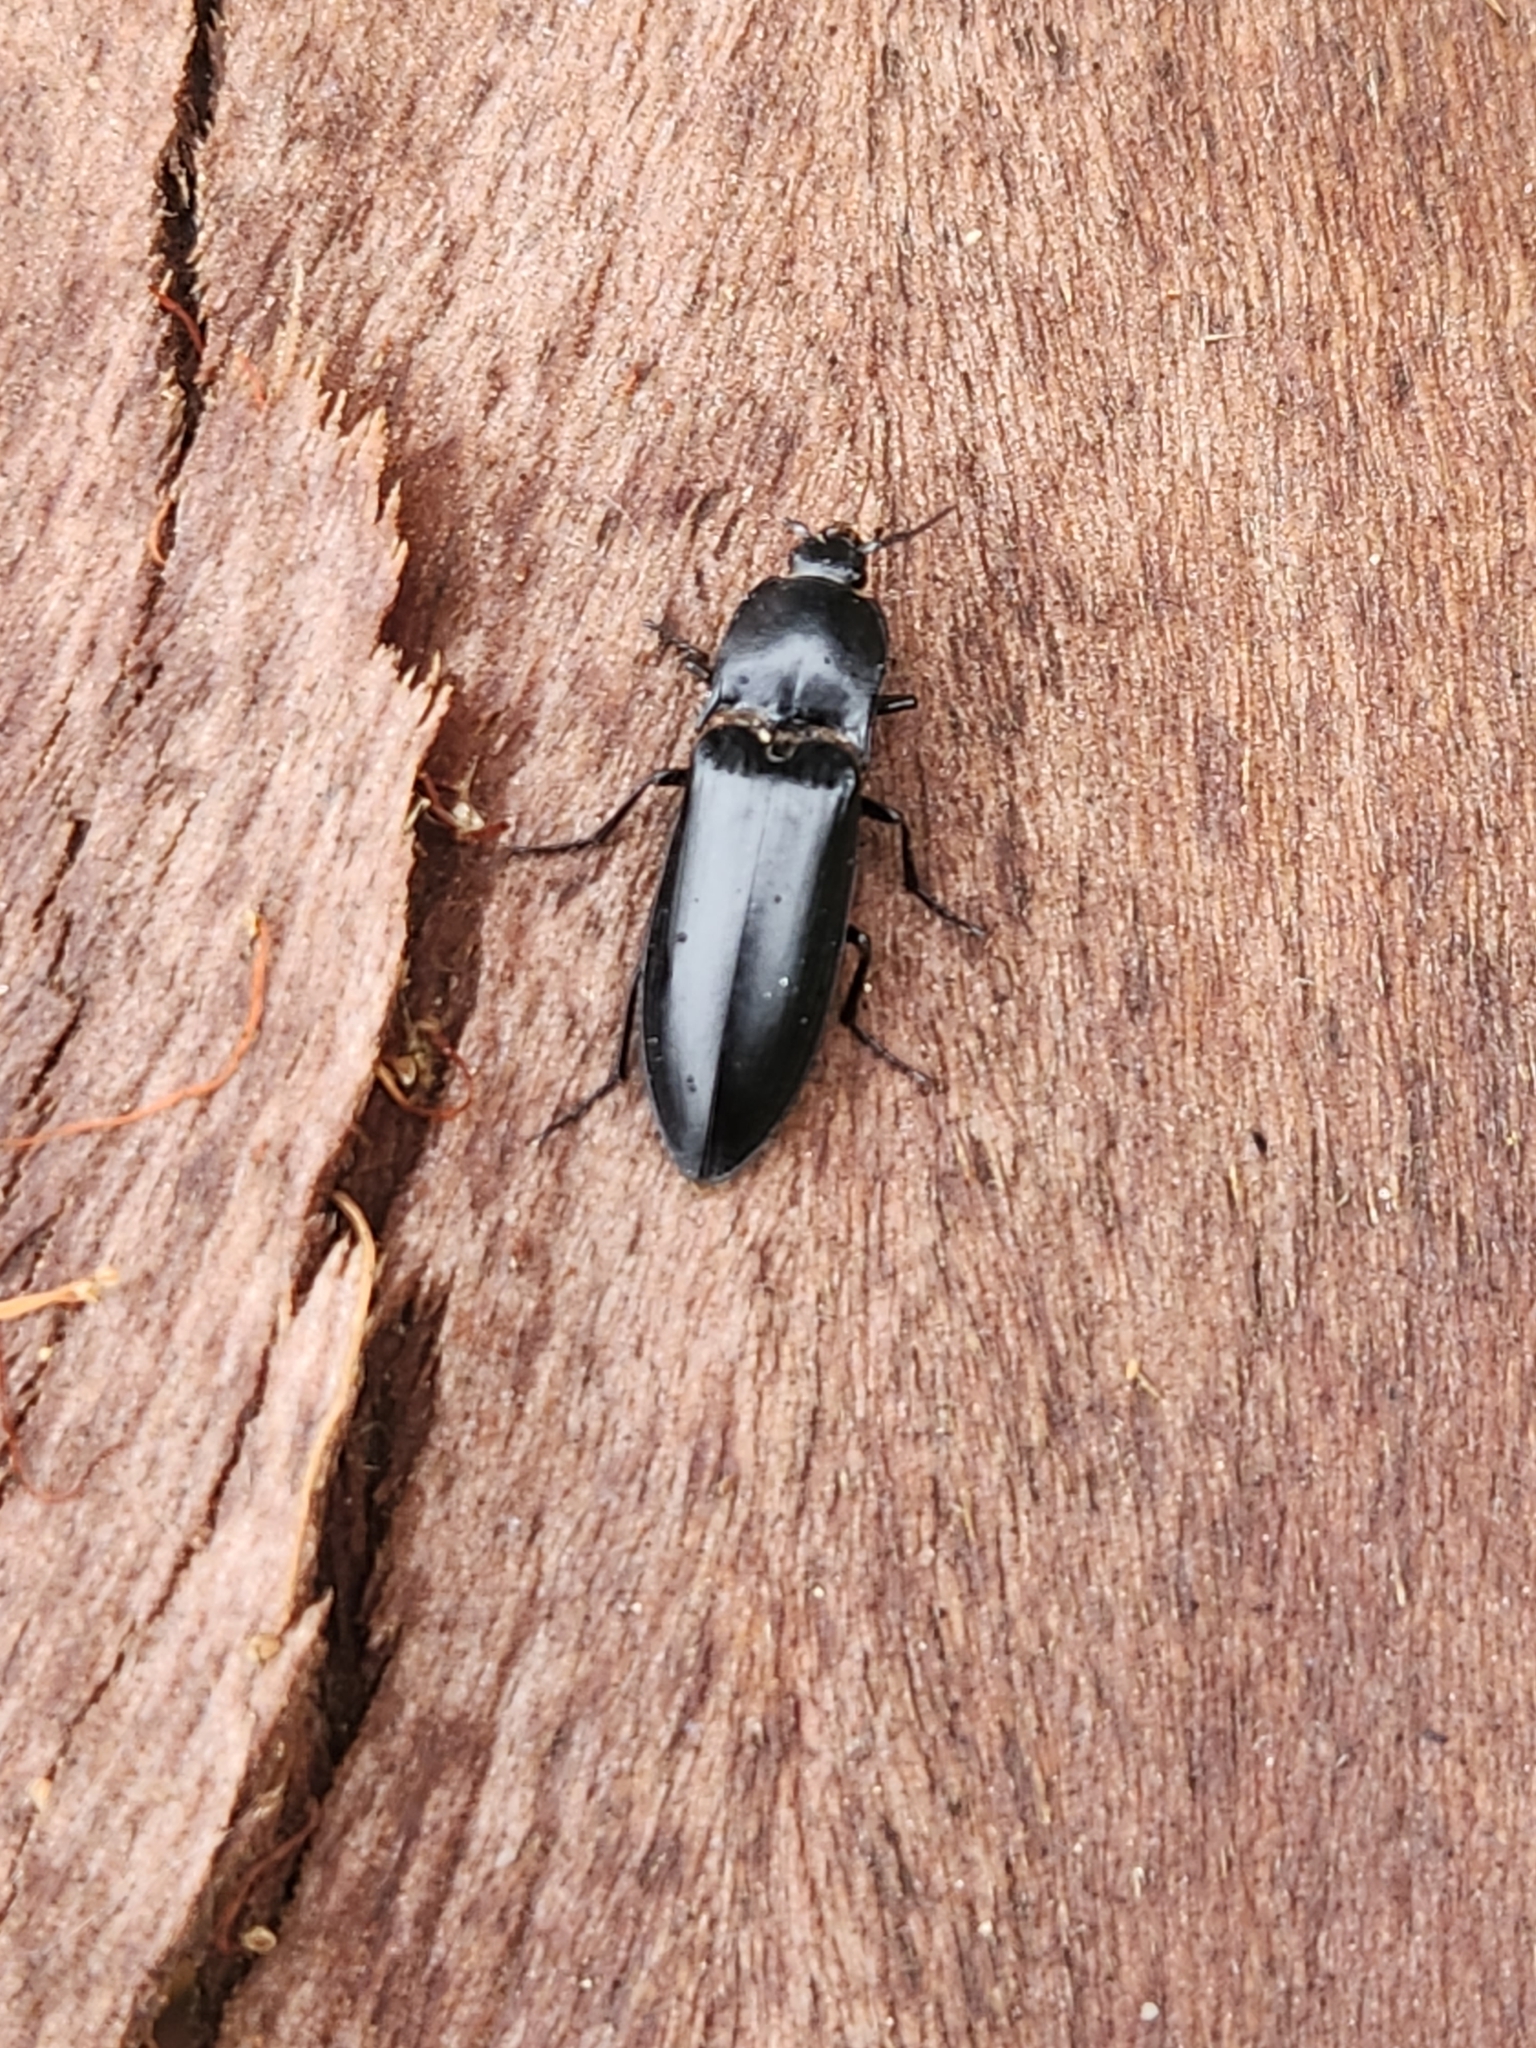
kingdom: Animalia
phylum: Arthropoda
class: Insecta
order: Coleoptera
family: Elateridae
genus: Melanactes
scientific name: Melanactes
